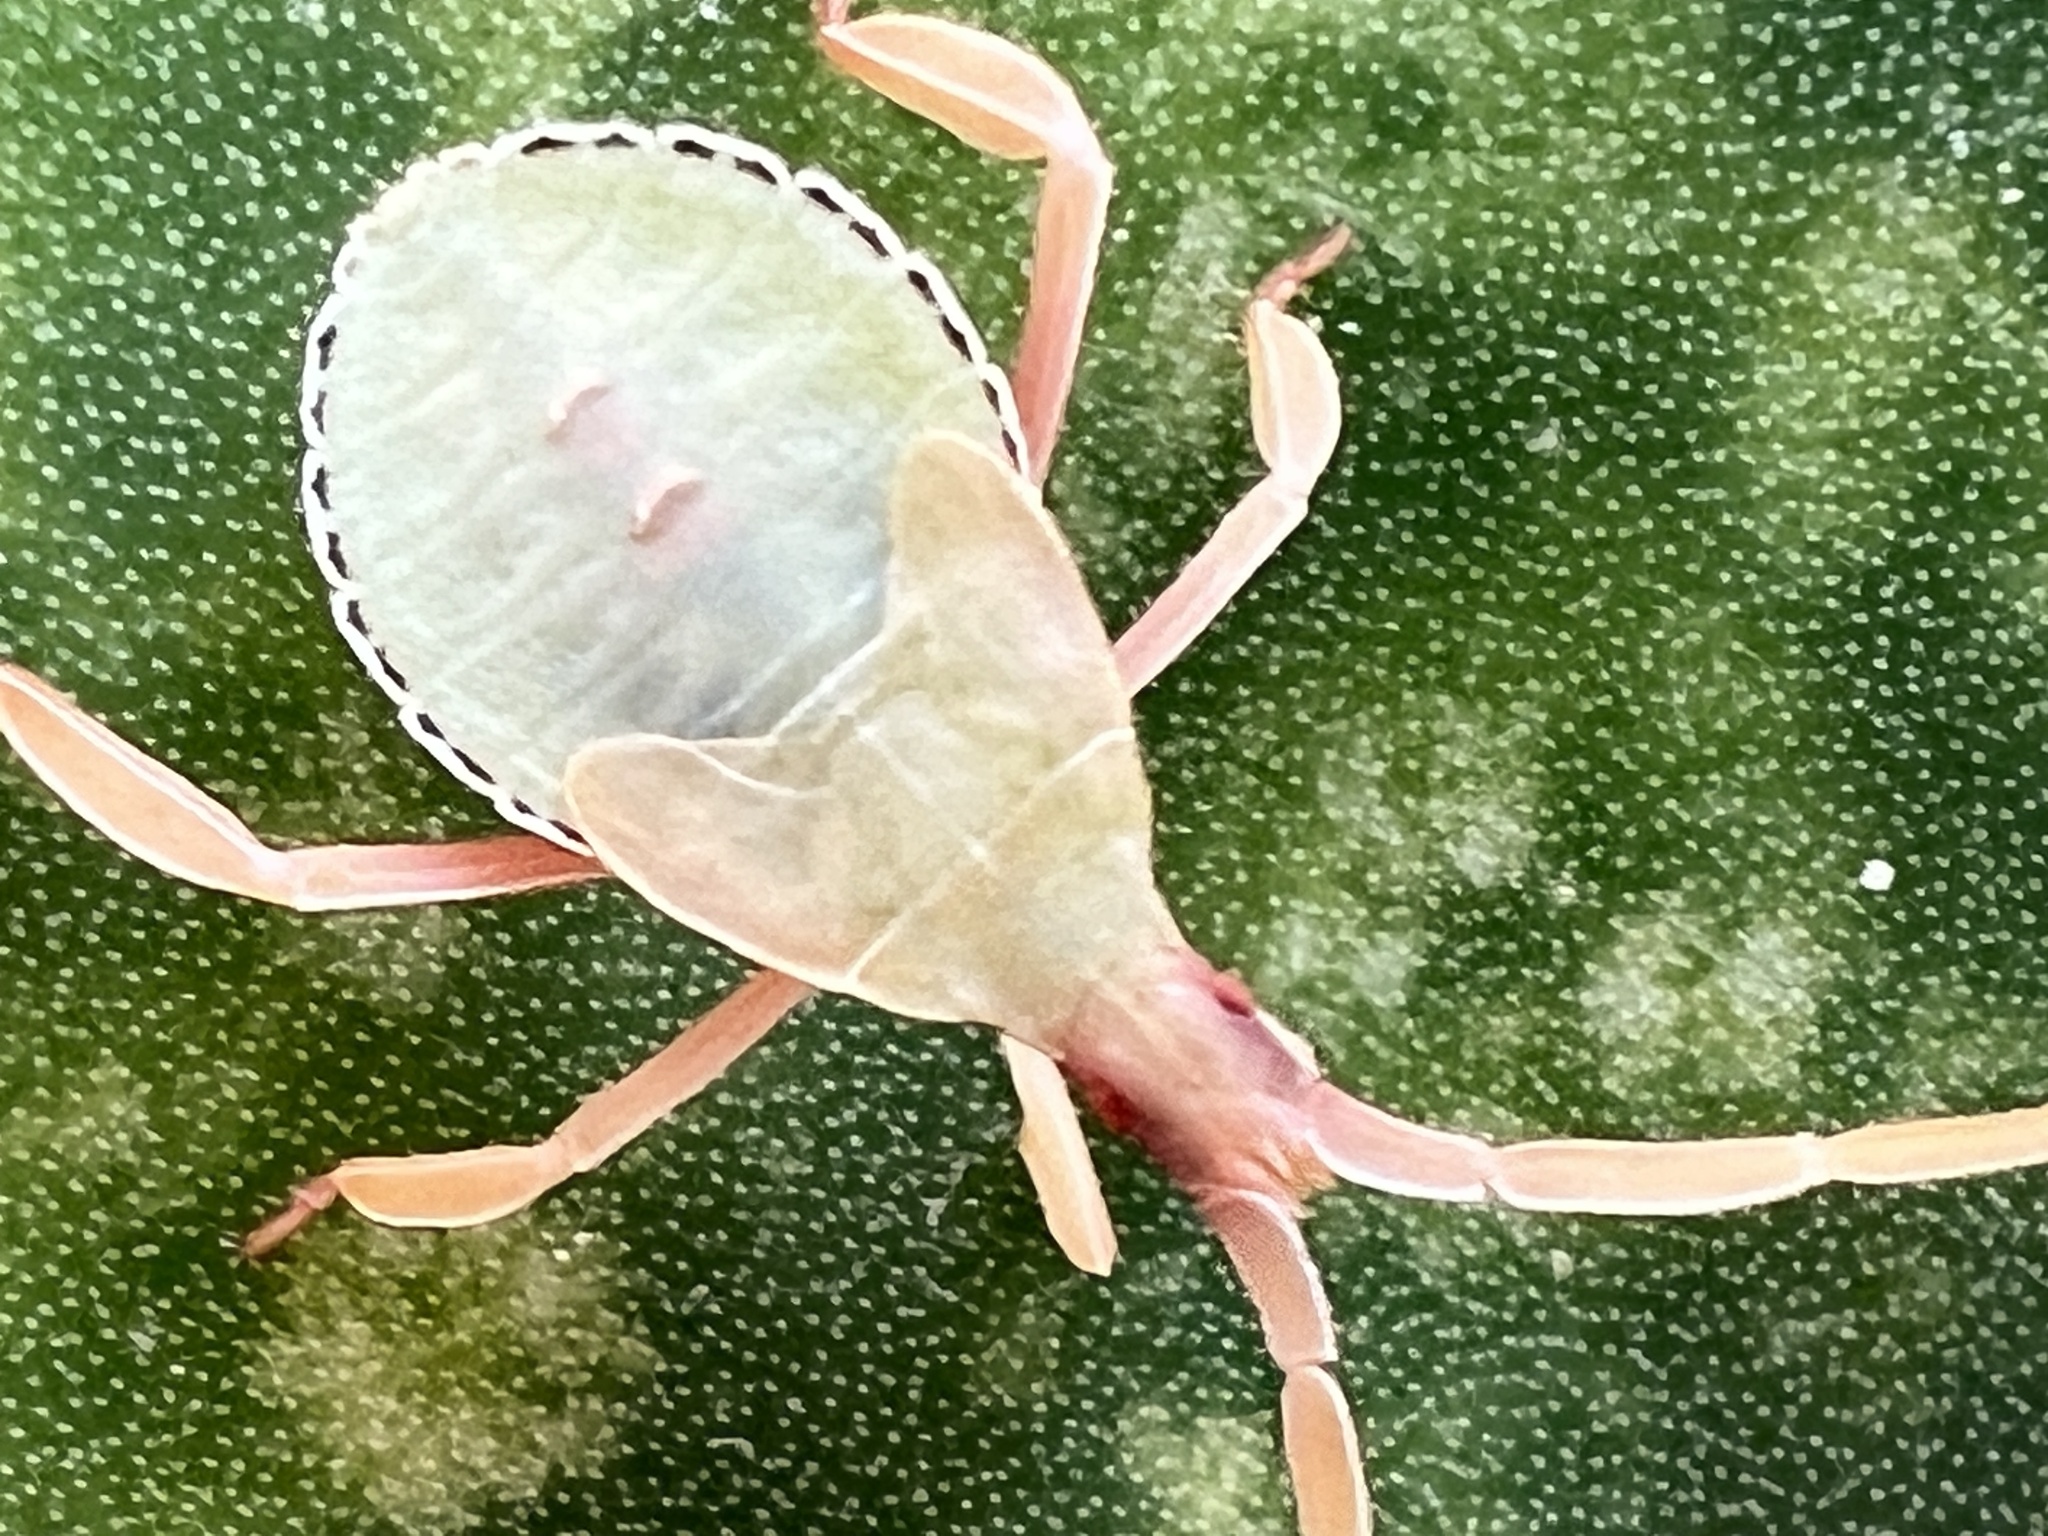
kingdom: Animalia
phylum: Arthropoda
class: Insecta
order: Hemiptera
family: Coreidae
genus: Chelinidea
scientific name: Chelinidea tabulata
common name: Prickly pear bug
